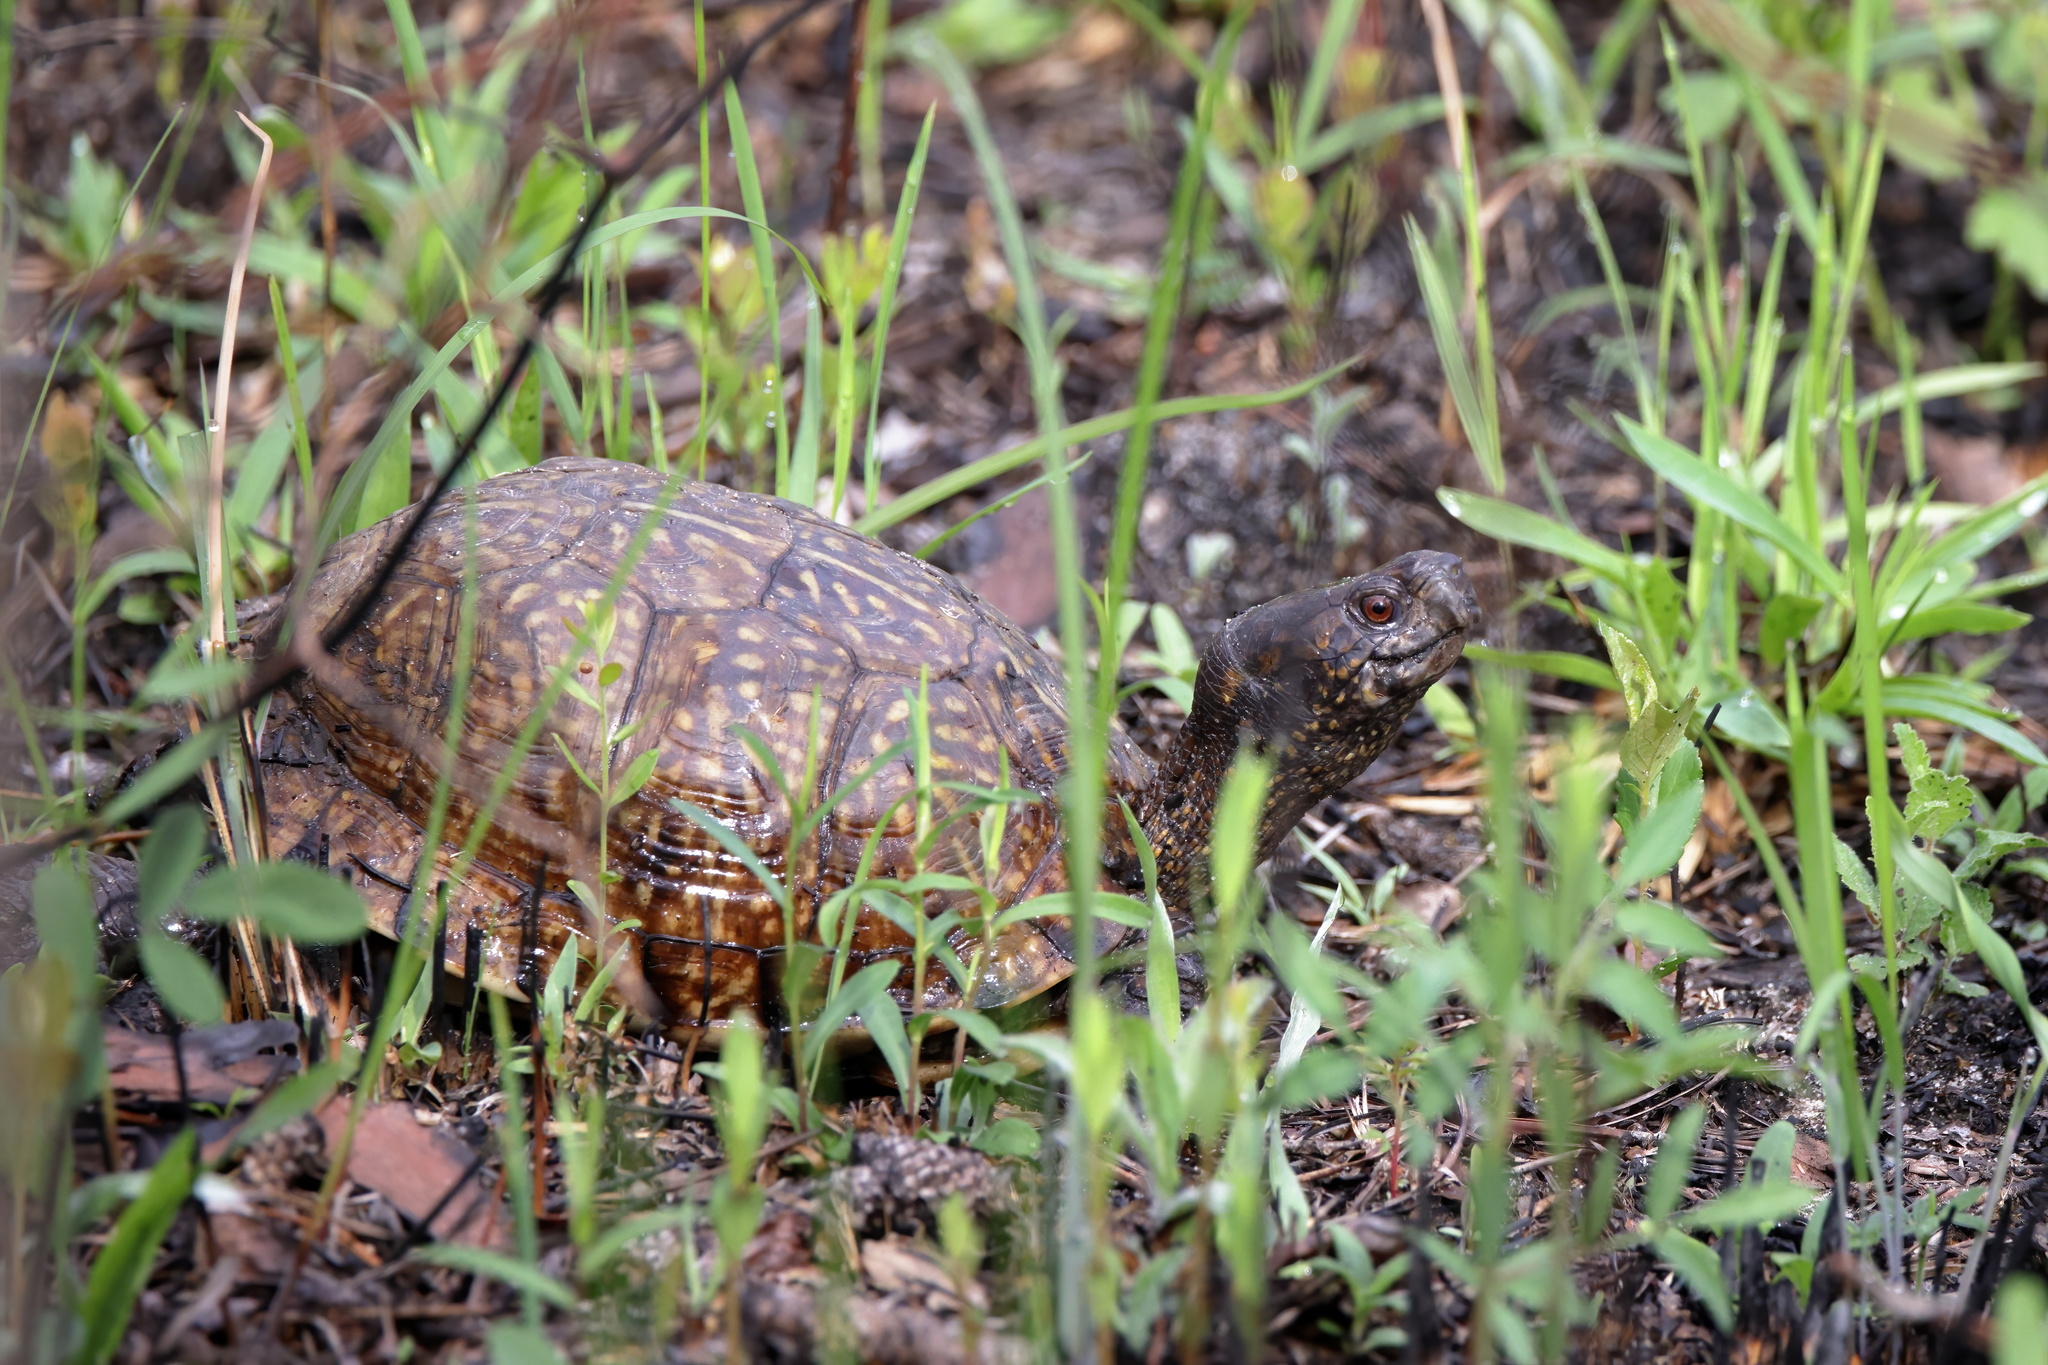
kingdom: Animalia
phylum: Chordata
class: Testudines
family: Emydidae
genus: Terrapene
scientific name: Terrapene carolina
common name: Common box turtle
